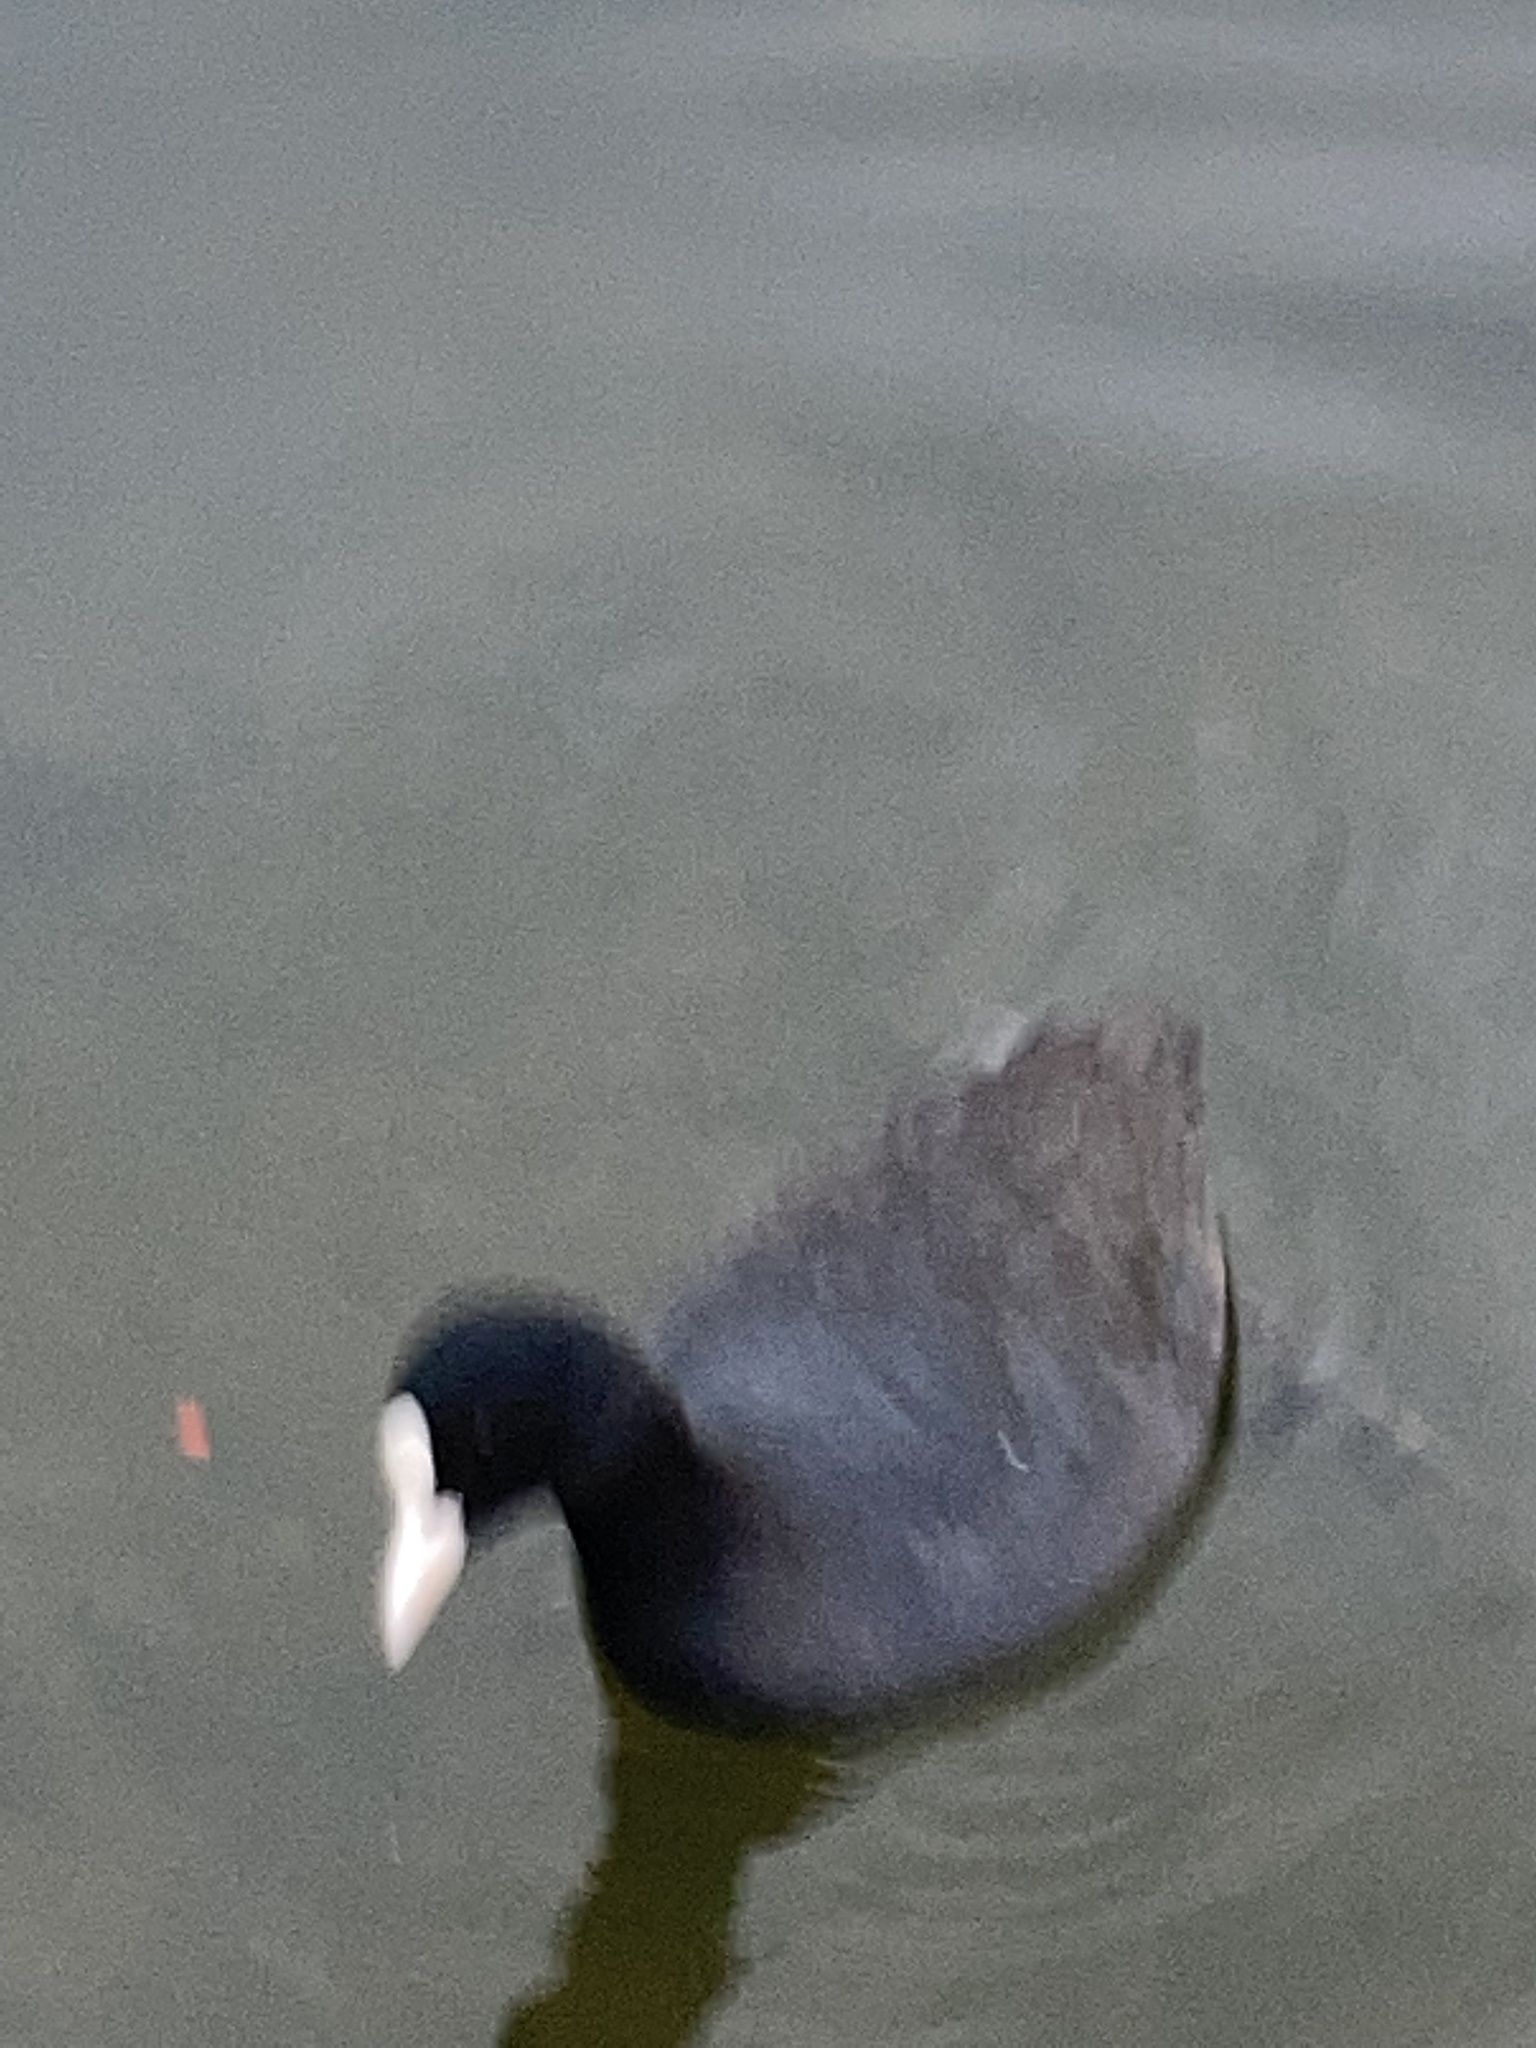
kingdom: Animalia
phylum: Chordata
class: Aves
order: Gruiformes
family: Rallidae
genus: Fulica
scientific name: Fulica atra
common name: Eurasian coot
